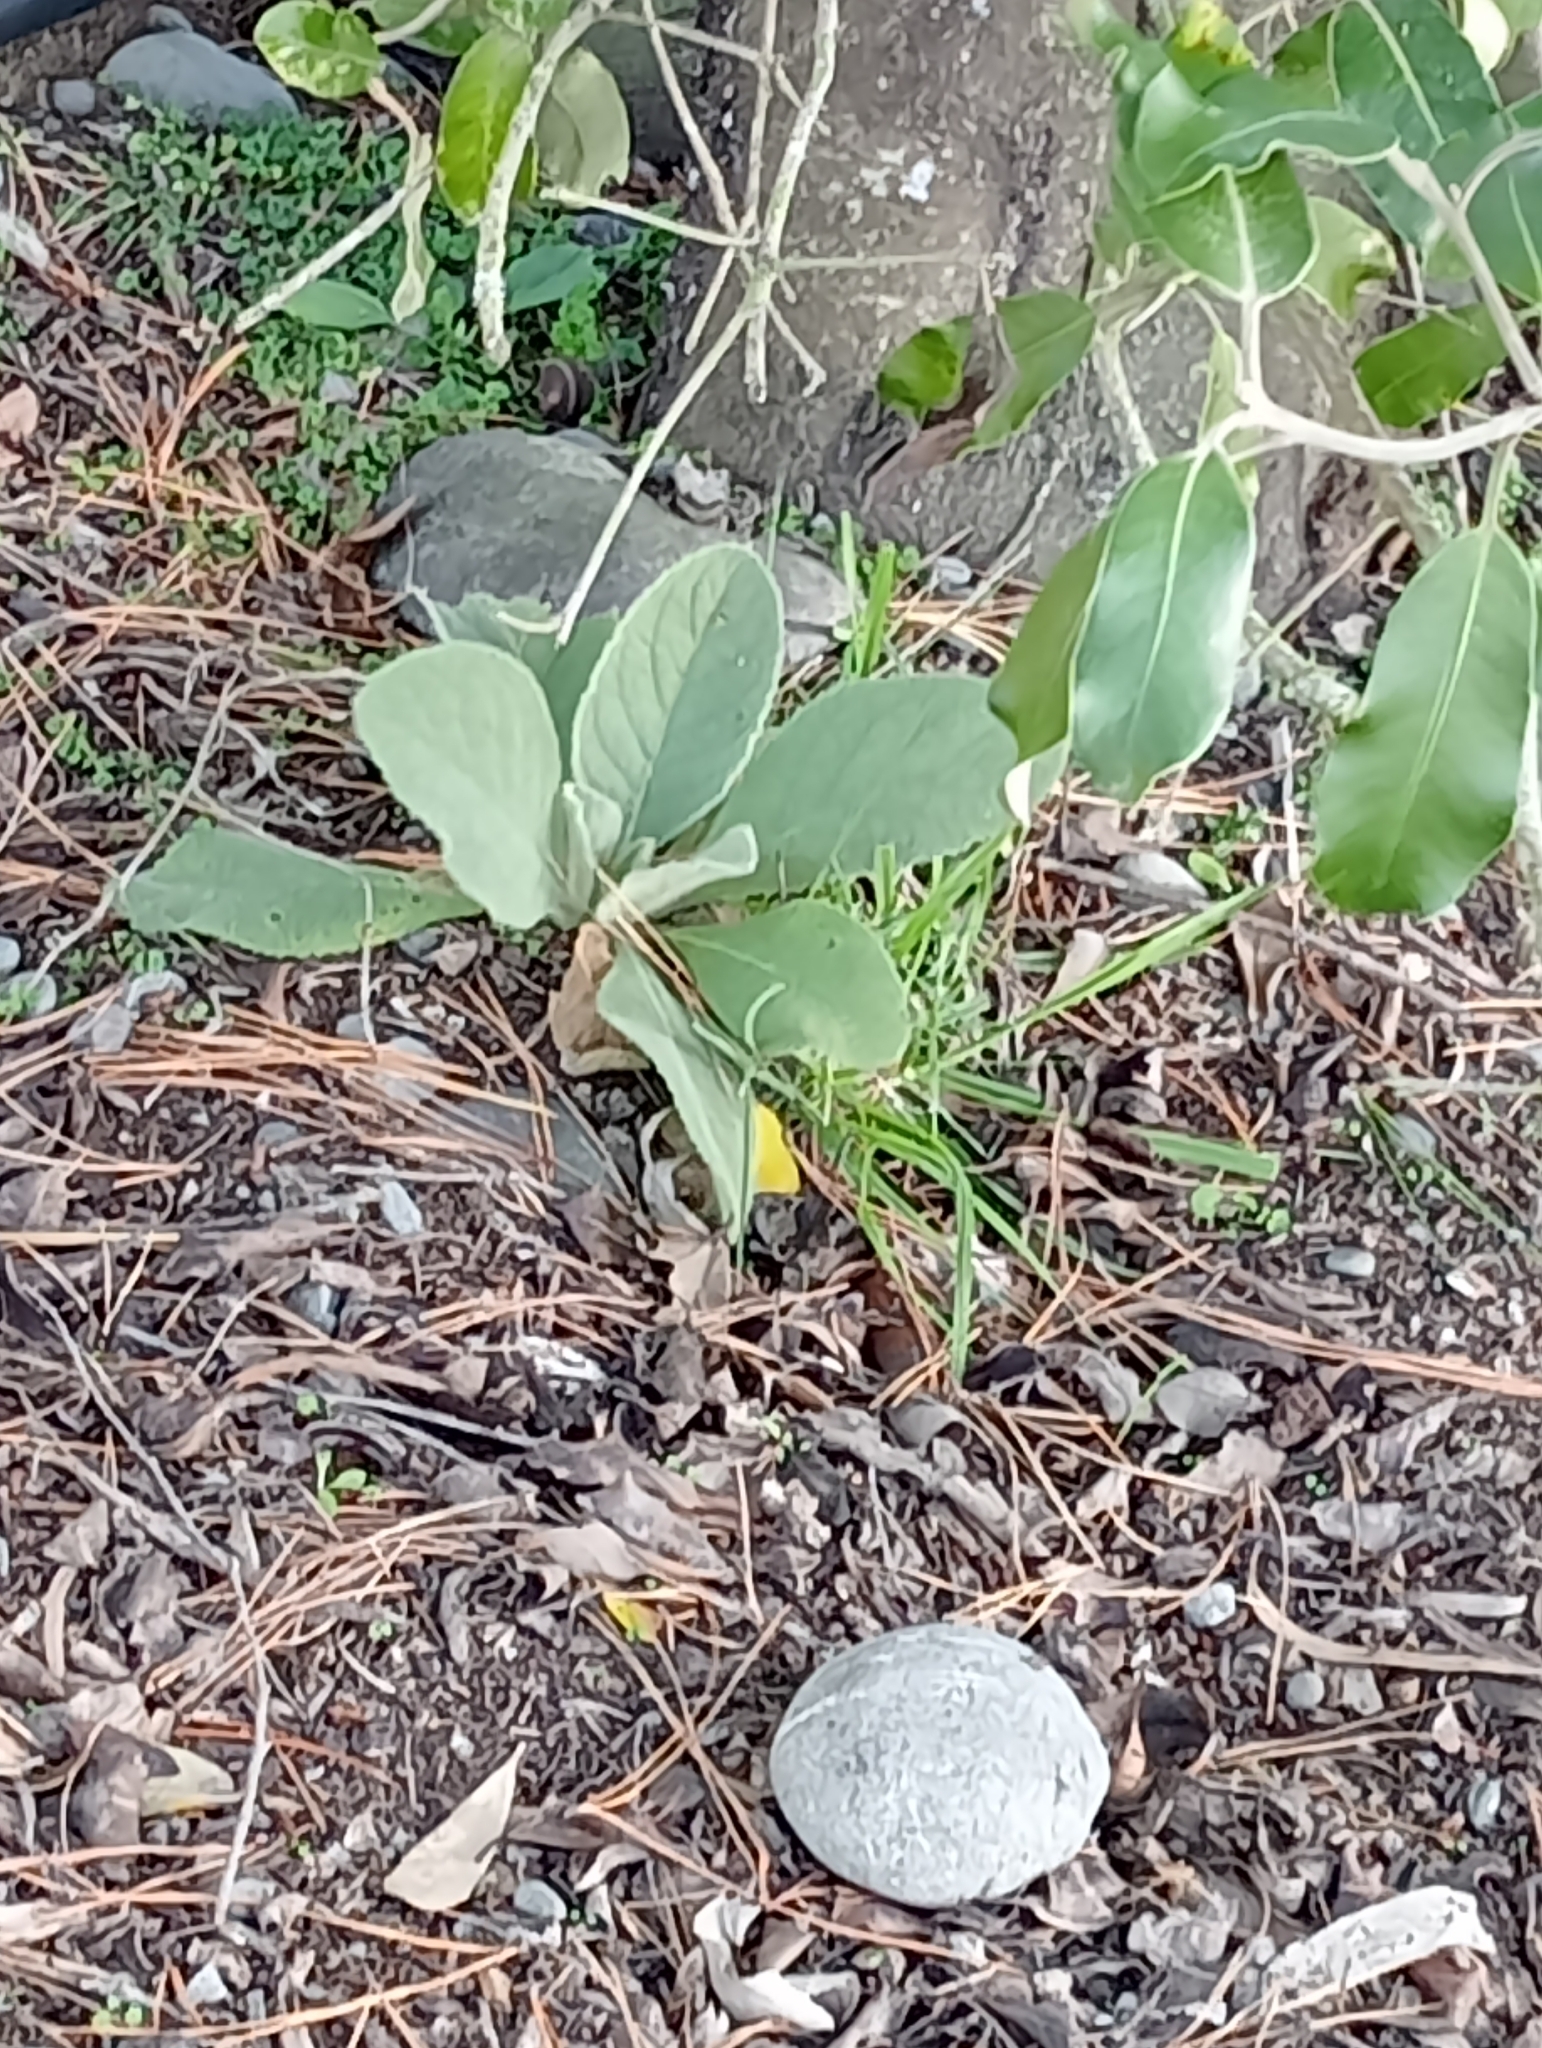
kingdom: Plantae
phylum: Tracheophyta
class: Magnoliopsida
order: Lamiales
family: Scrophulariaceae
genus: Verbascum
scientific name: Verbascum thapsus
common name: Common mullein
